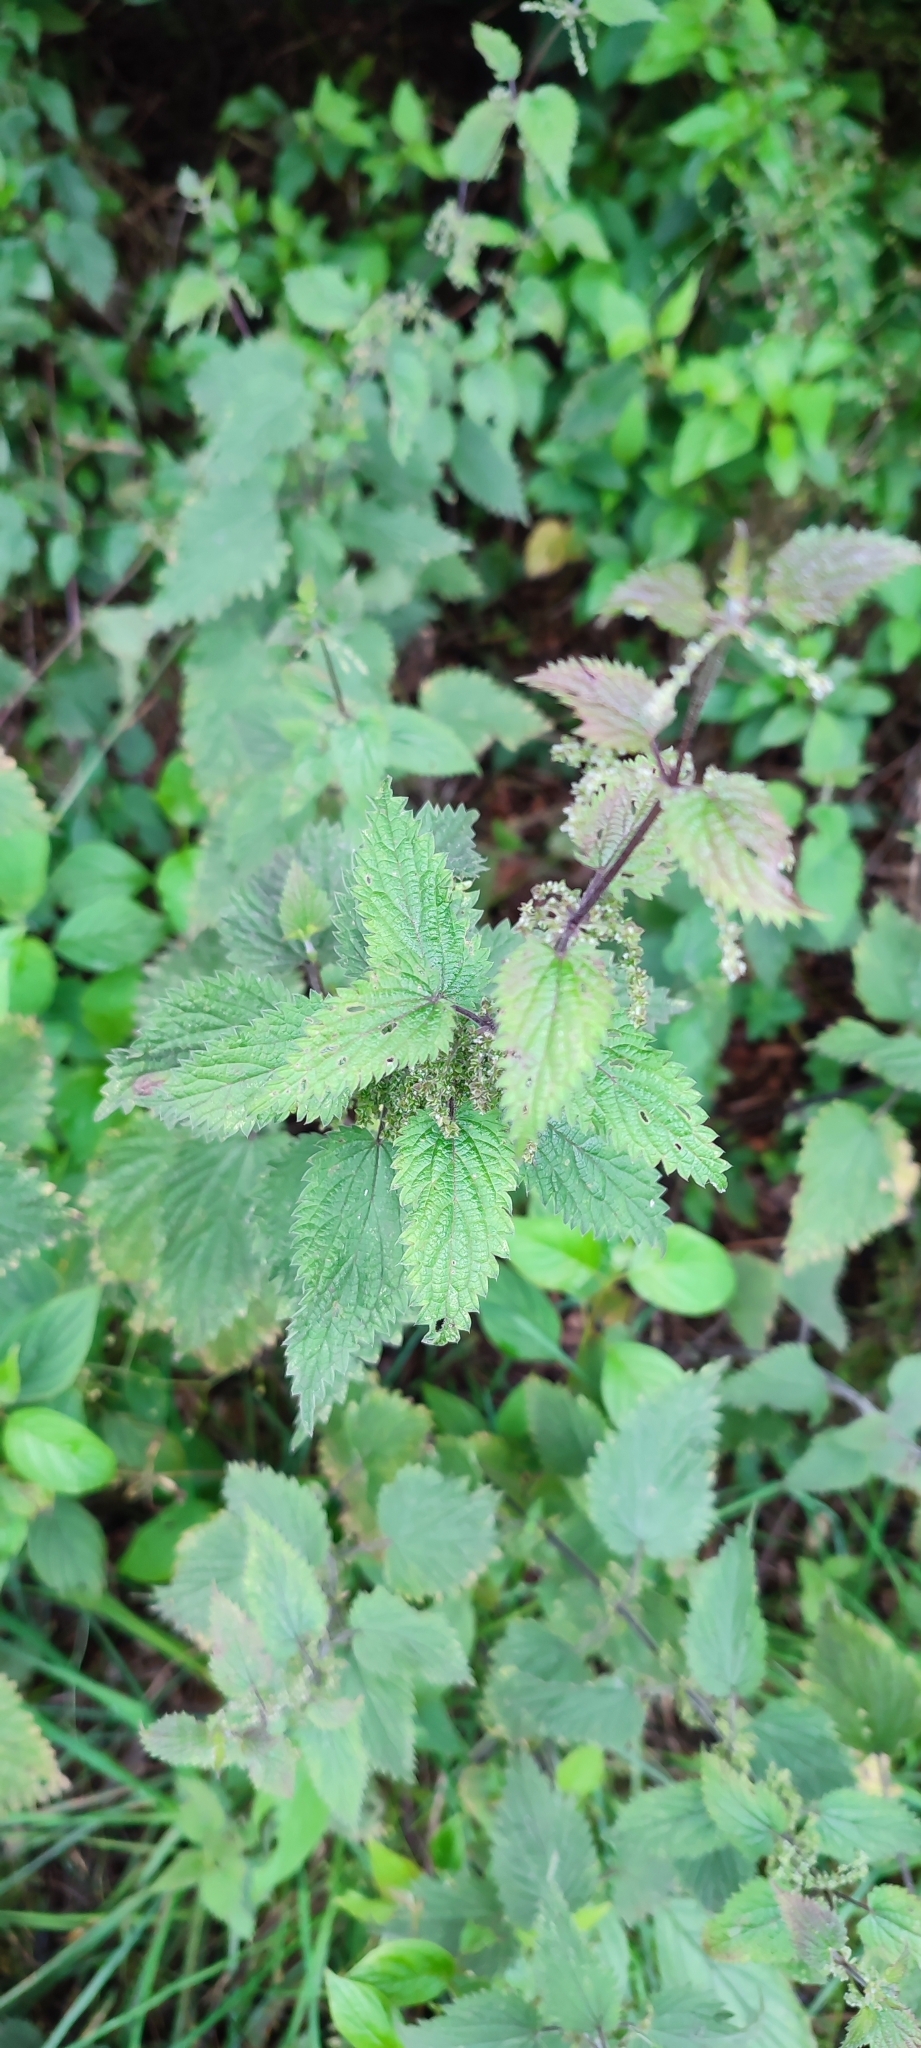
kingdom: Plantae
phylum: Tracheophyta
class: Magnoliopsida
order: Rosales
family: Urticaceae
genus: Urtica
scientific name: Urtica dioica
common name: Common nettle
